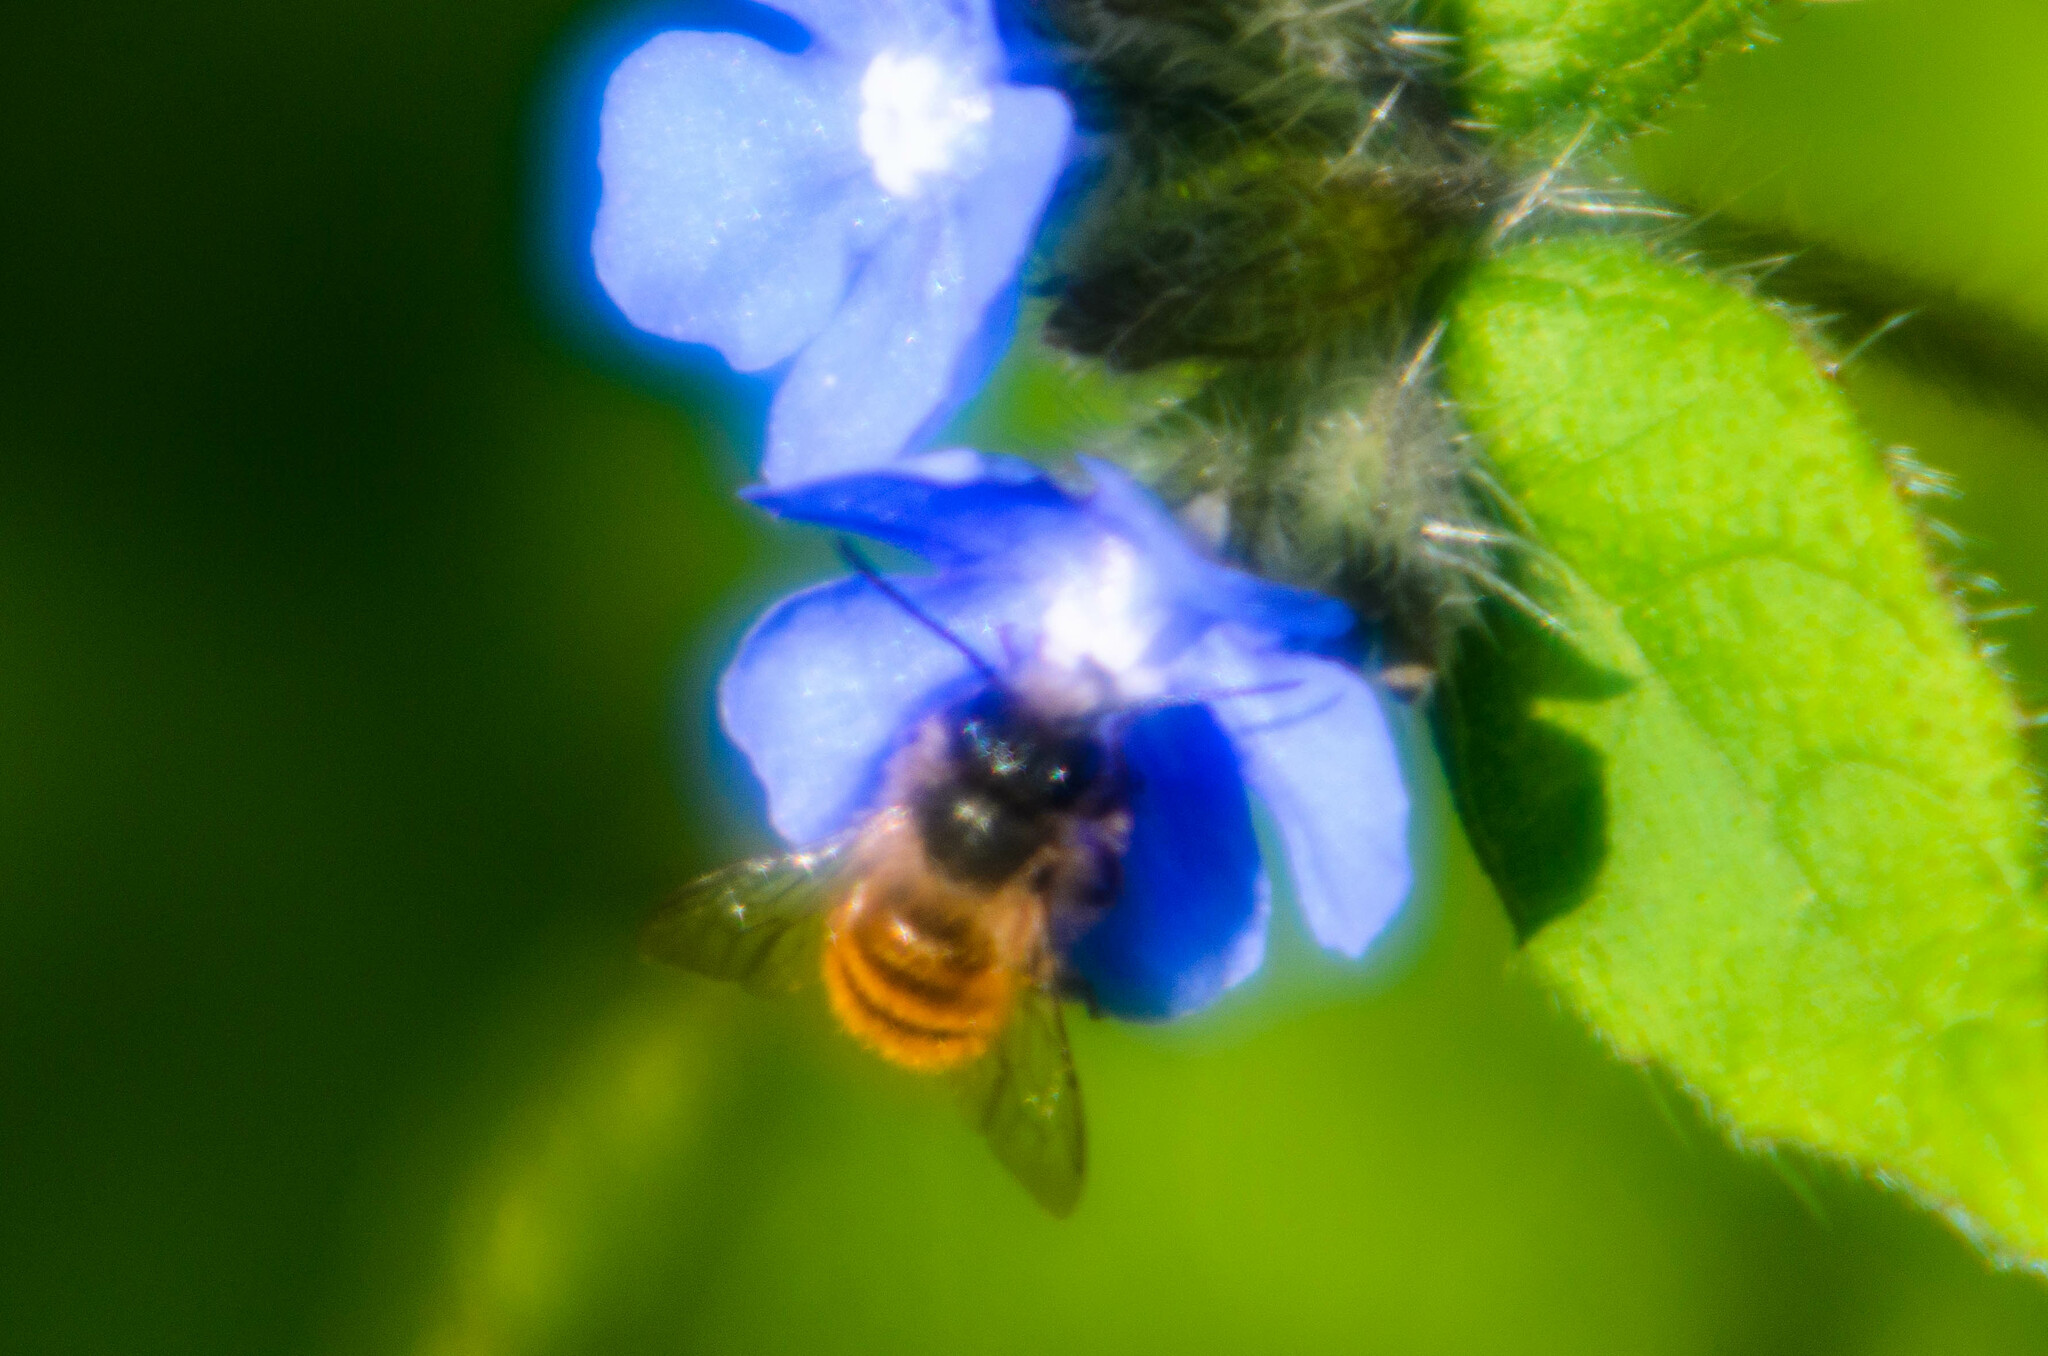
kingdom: Animalia
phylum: Arthropoda
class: Insecta
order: Hymenoptera
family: Megachilidae
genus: Osmia
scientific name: Osmia bicornis
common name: Red mason bee
